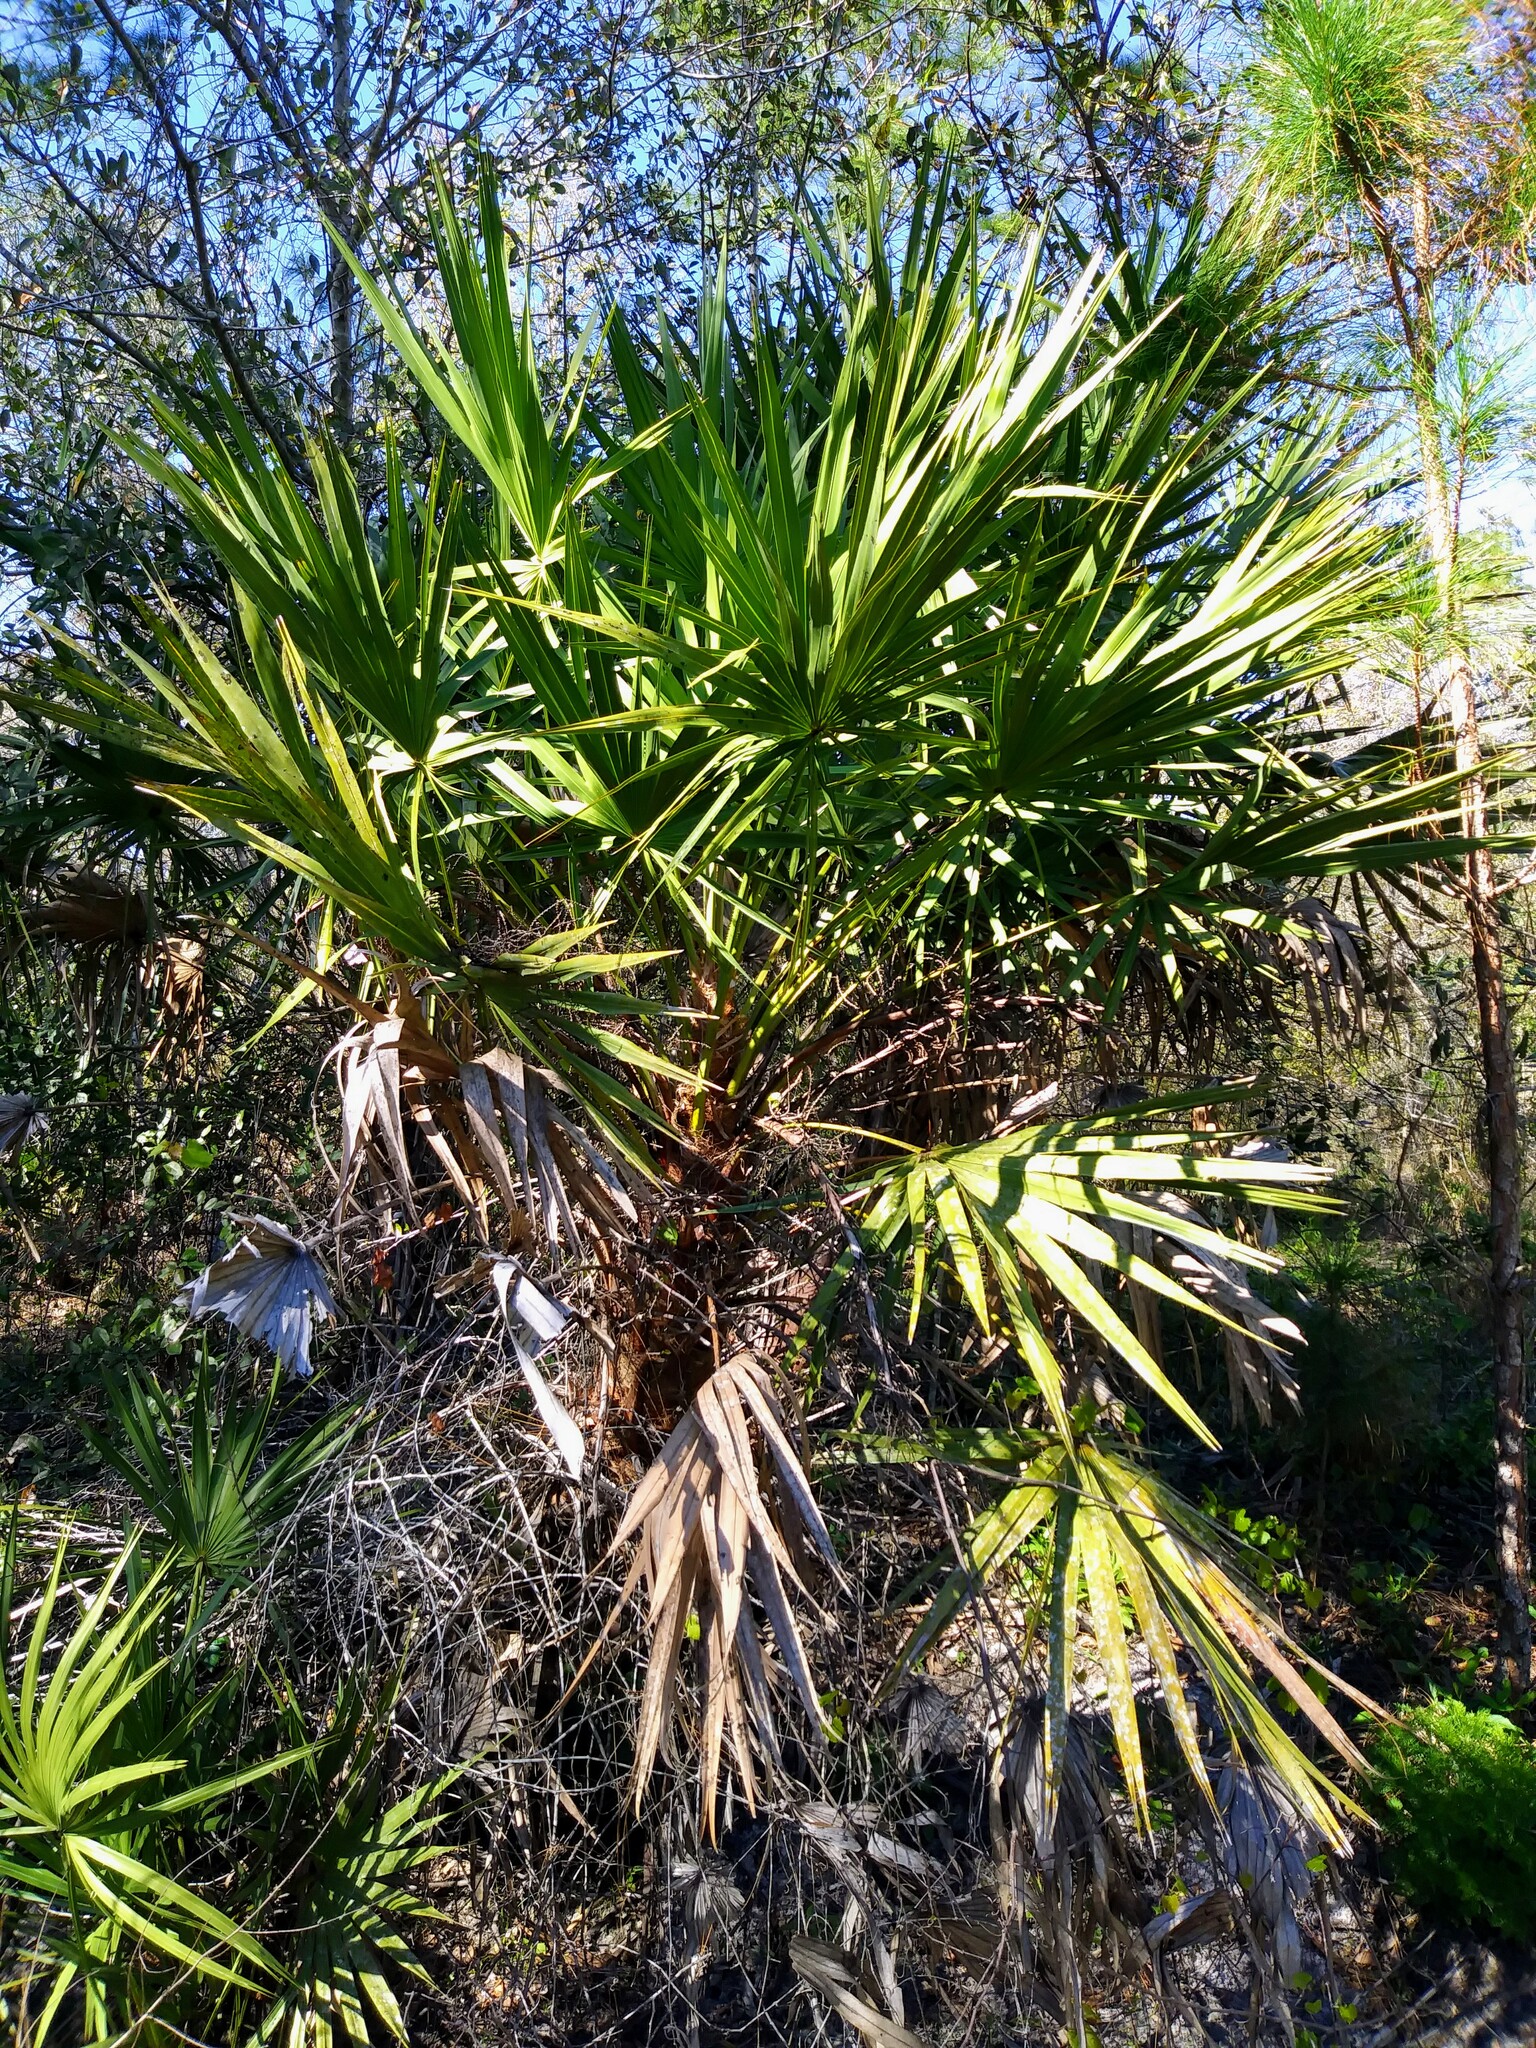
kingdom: Plantae
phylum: Tracheophyta
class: Liliopsida
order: Arecales
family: Arecaceae
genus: Serenoa
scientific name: Serenoa repens
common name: Saw-palmetto
